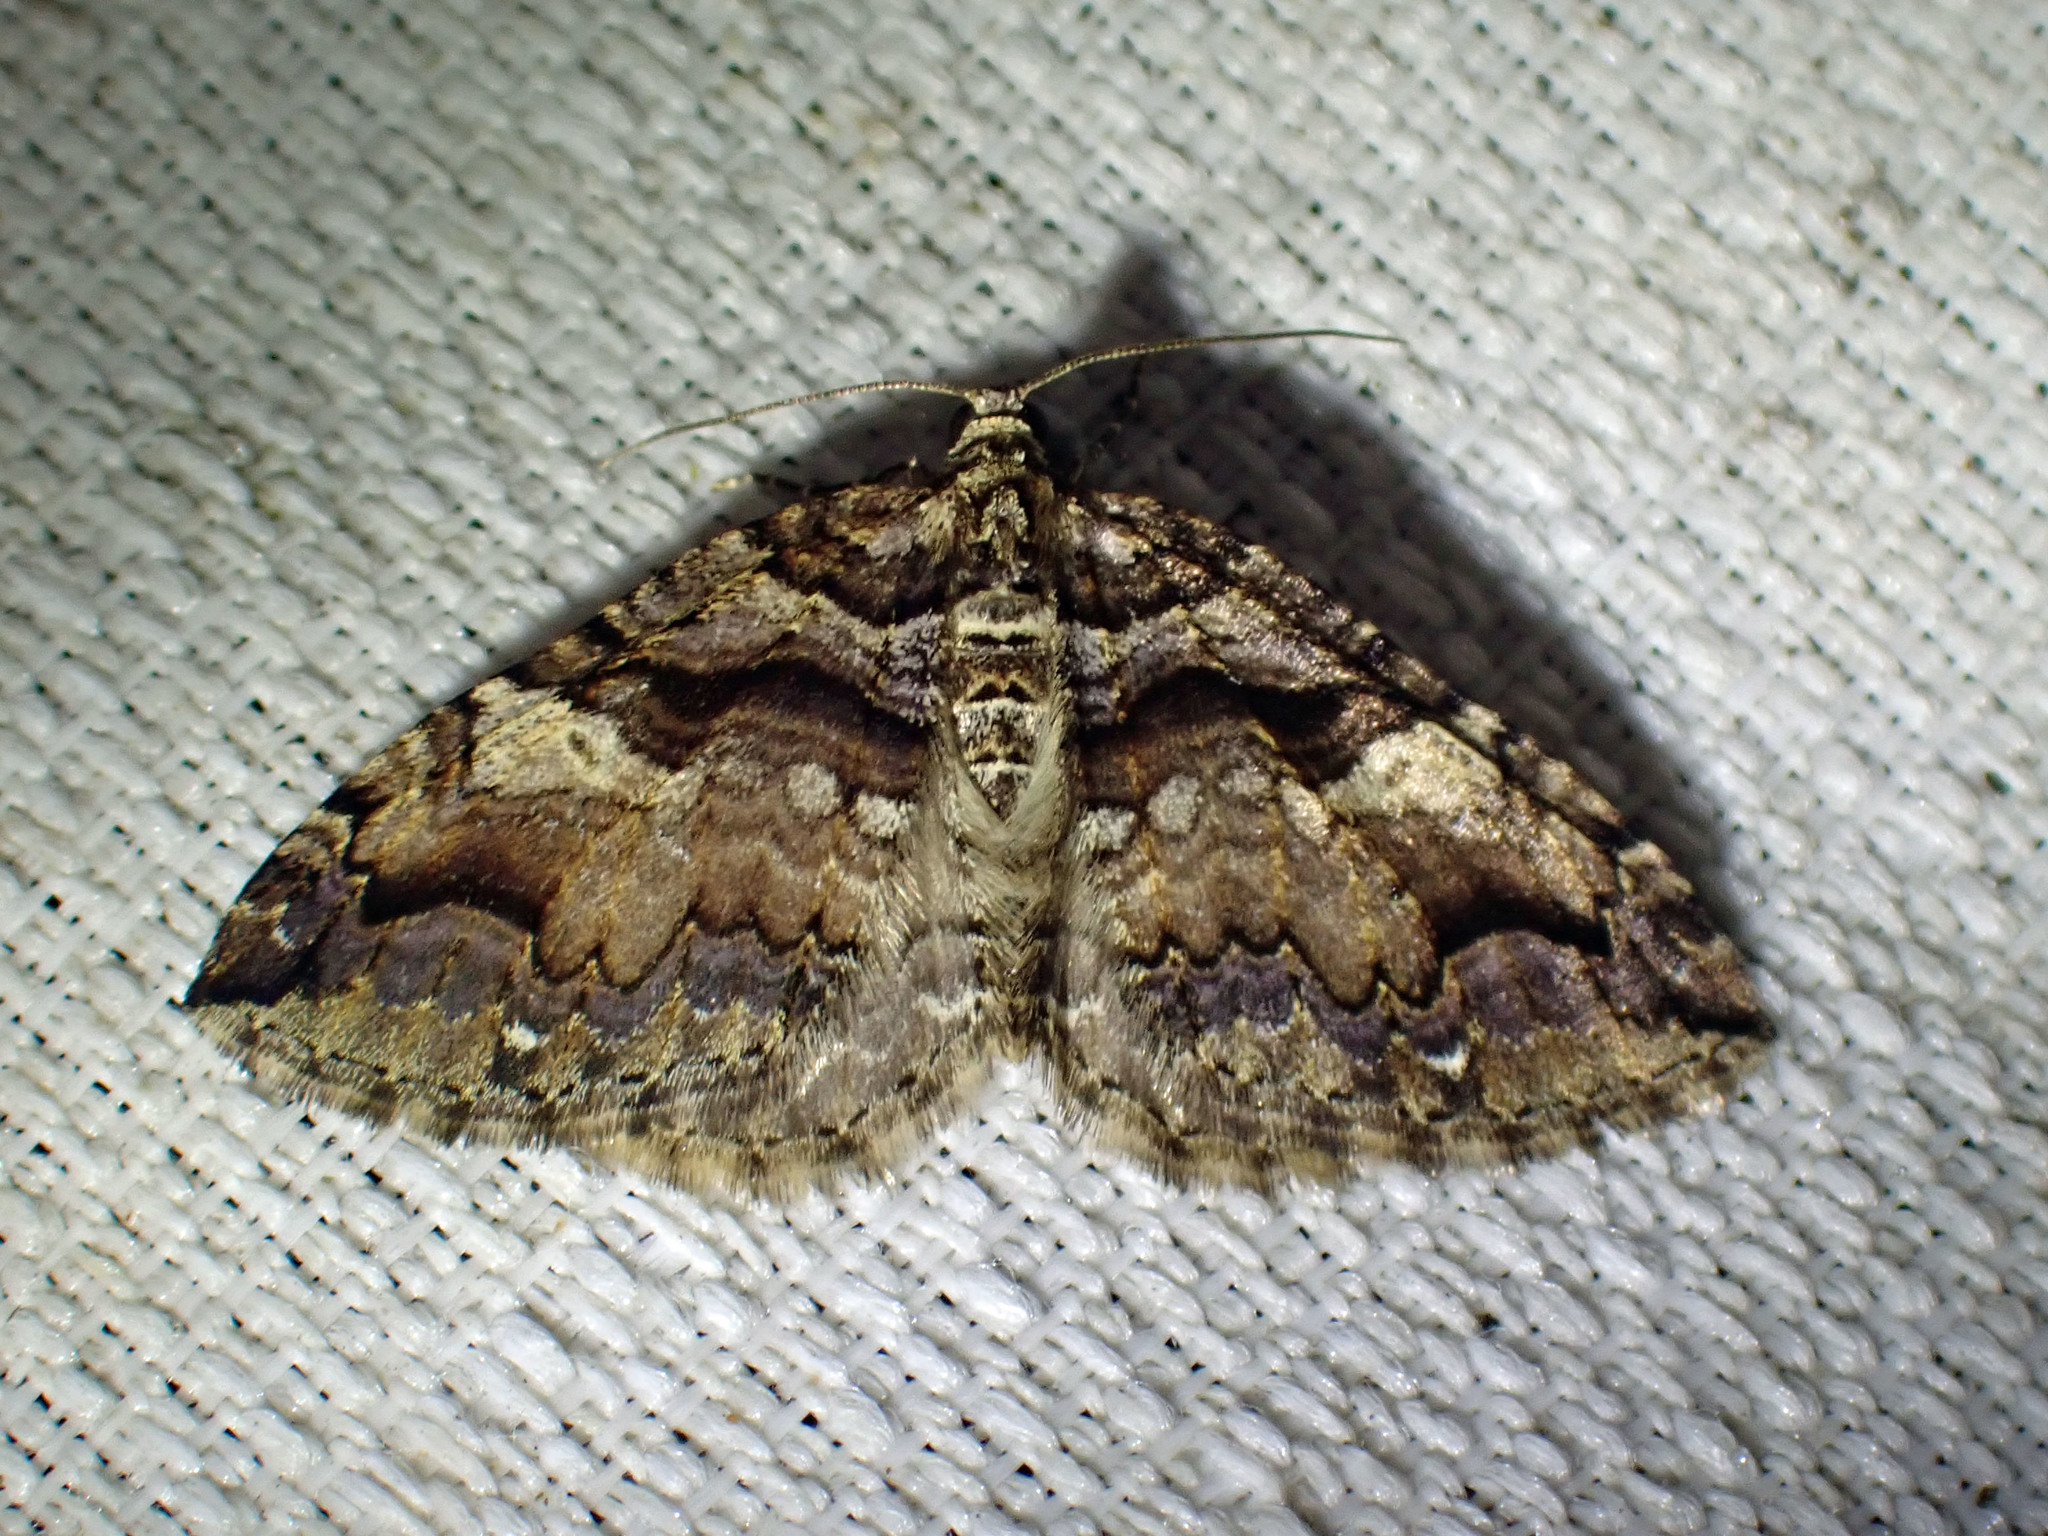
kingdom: Animalia
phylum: Arthropoda
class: Insecta
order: Lepidoptera
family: Geometridae
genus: Anticlea
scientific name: Anticlea vasiliata
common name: Variable carpet
